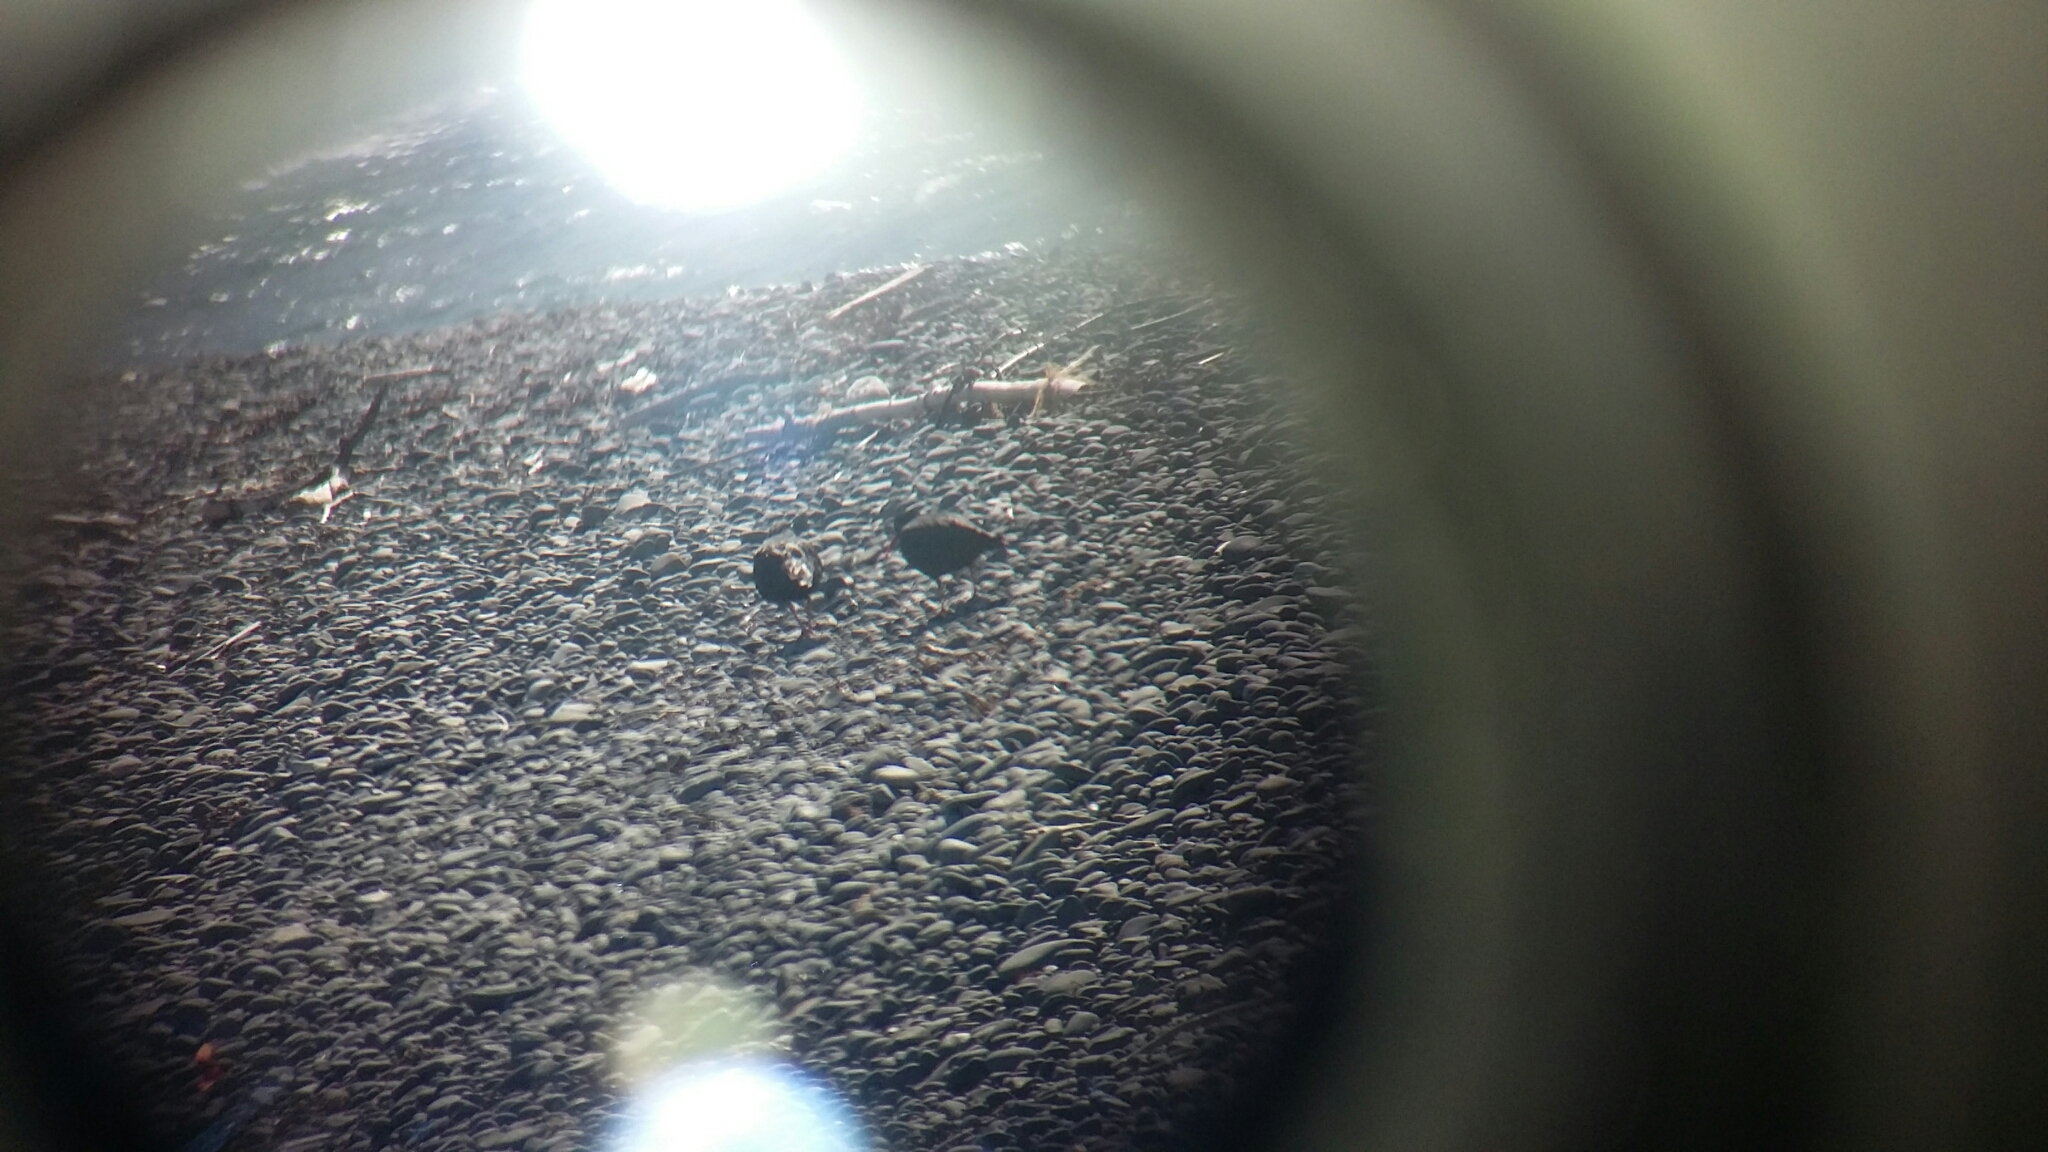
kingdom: Animalia
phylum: Chordata
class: Aves
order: Charadriiformes
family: Haematopodidae
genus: Haematopus
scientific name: Haematopus unicolor
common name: Variable oystercatcher
